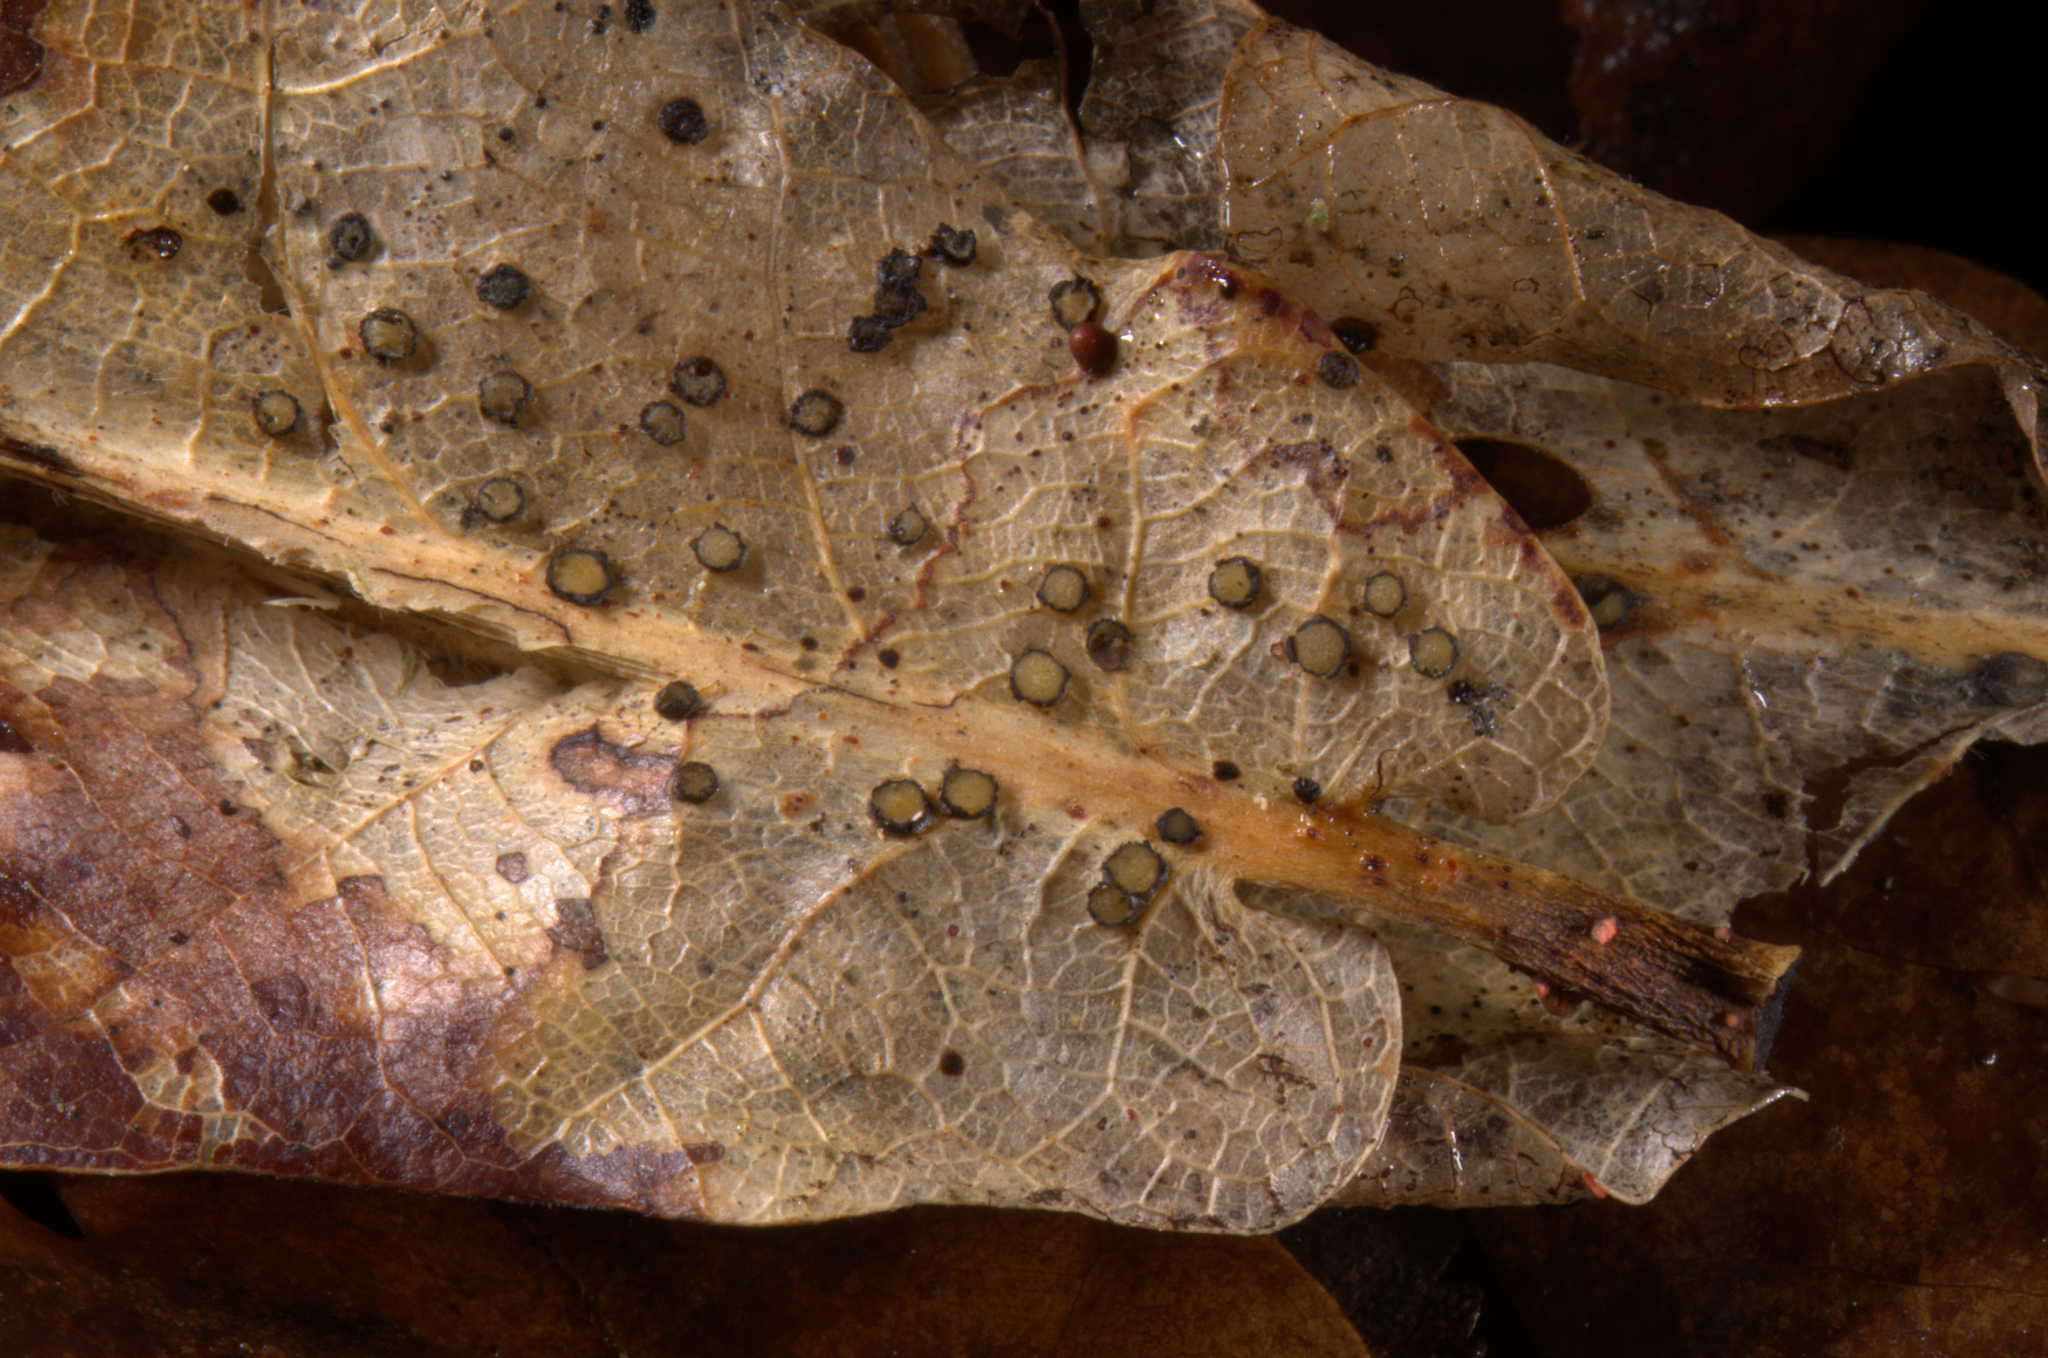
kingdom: Fungi
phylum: Ascomycota
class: Leotiomycetes
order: Rhytismatales
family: Rhytismataceae
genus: Coccomyces
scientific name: Coccomyces coronatus
